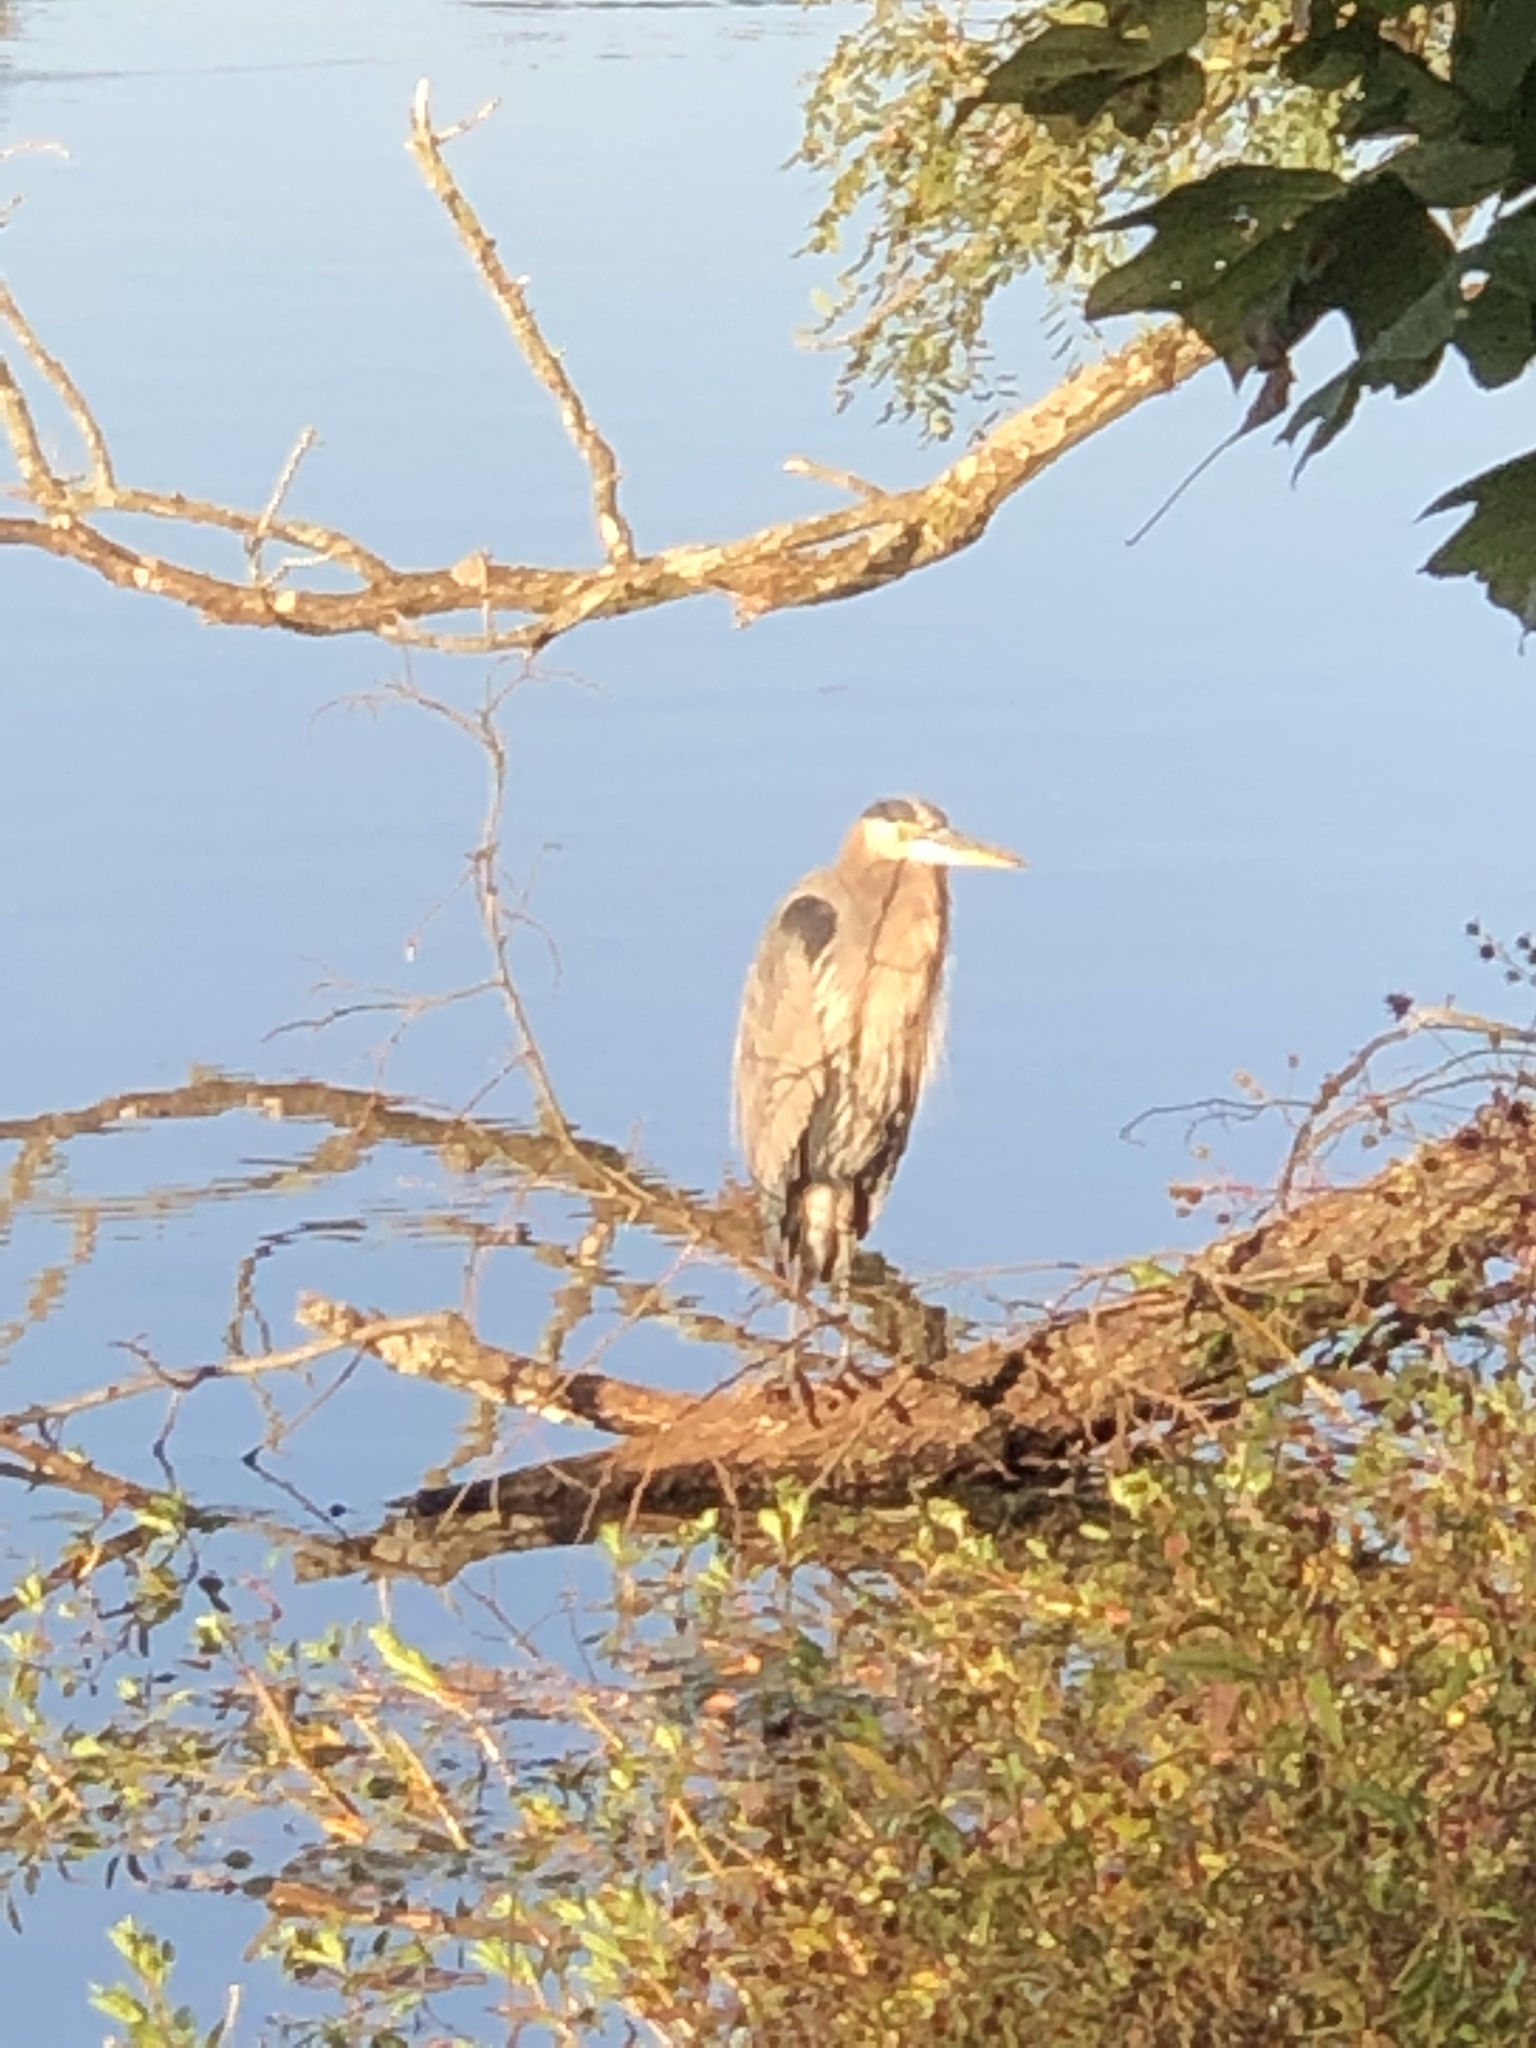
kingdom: Animalia
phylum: Chordata
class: Aves
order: Pelecaniformes
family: Ardeidae
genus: Ardea
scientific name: Ardea herodias
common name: Great blue heron
